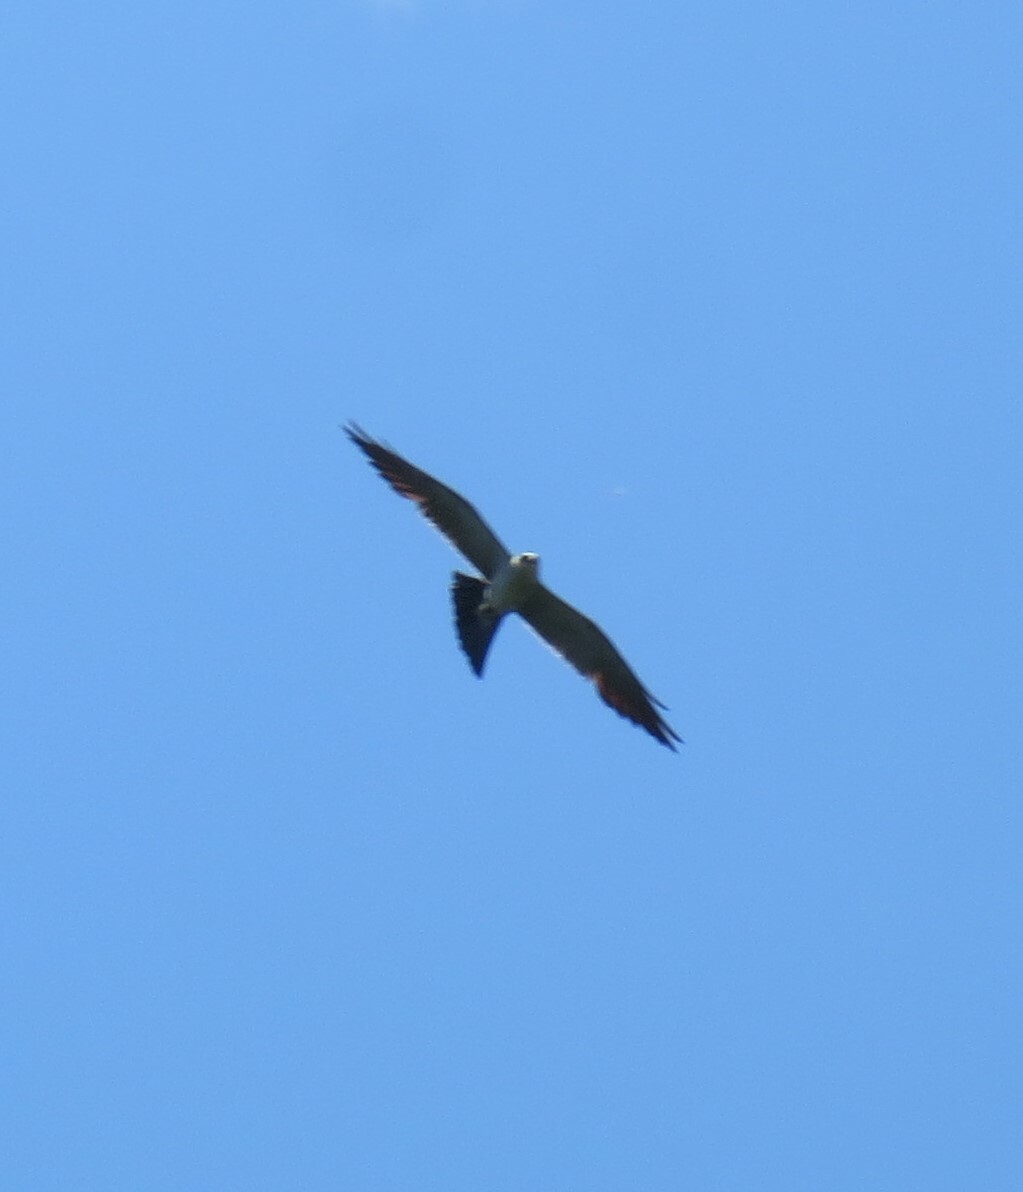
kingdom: Animalia
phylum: Chordata
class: Aves
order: Accipitriformes
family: Accipitridae
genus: Ictinia
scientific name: Ictinia mississippiensis
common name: Mississippi kite
